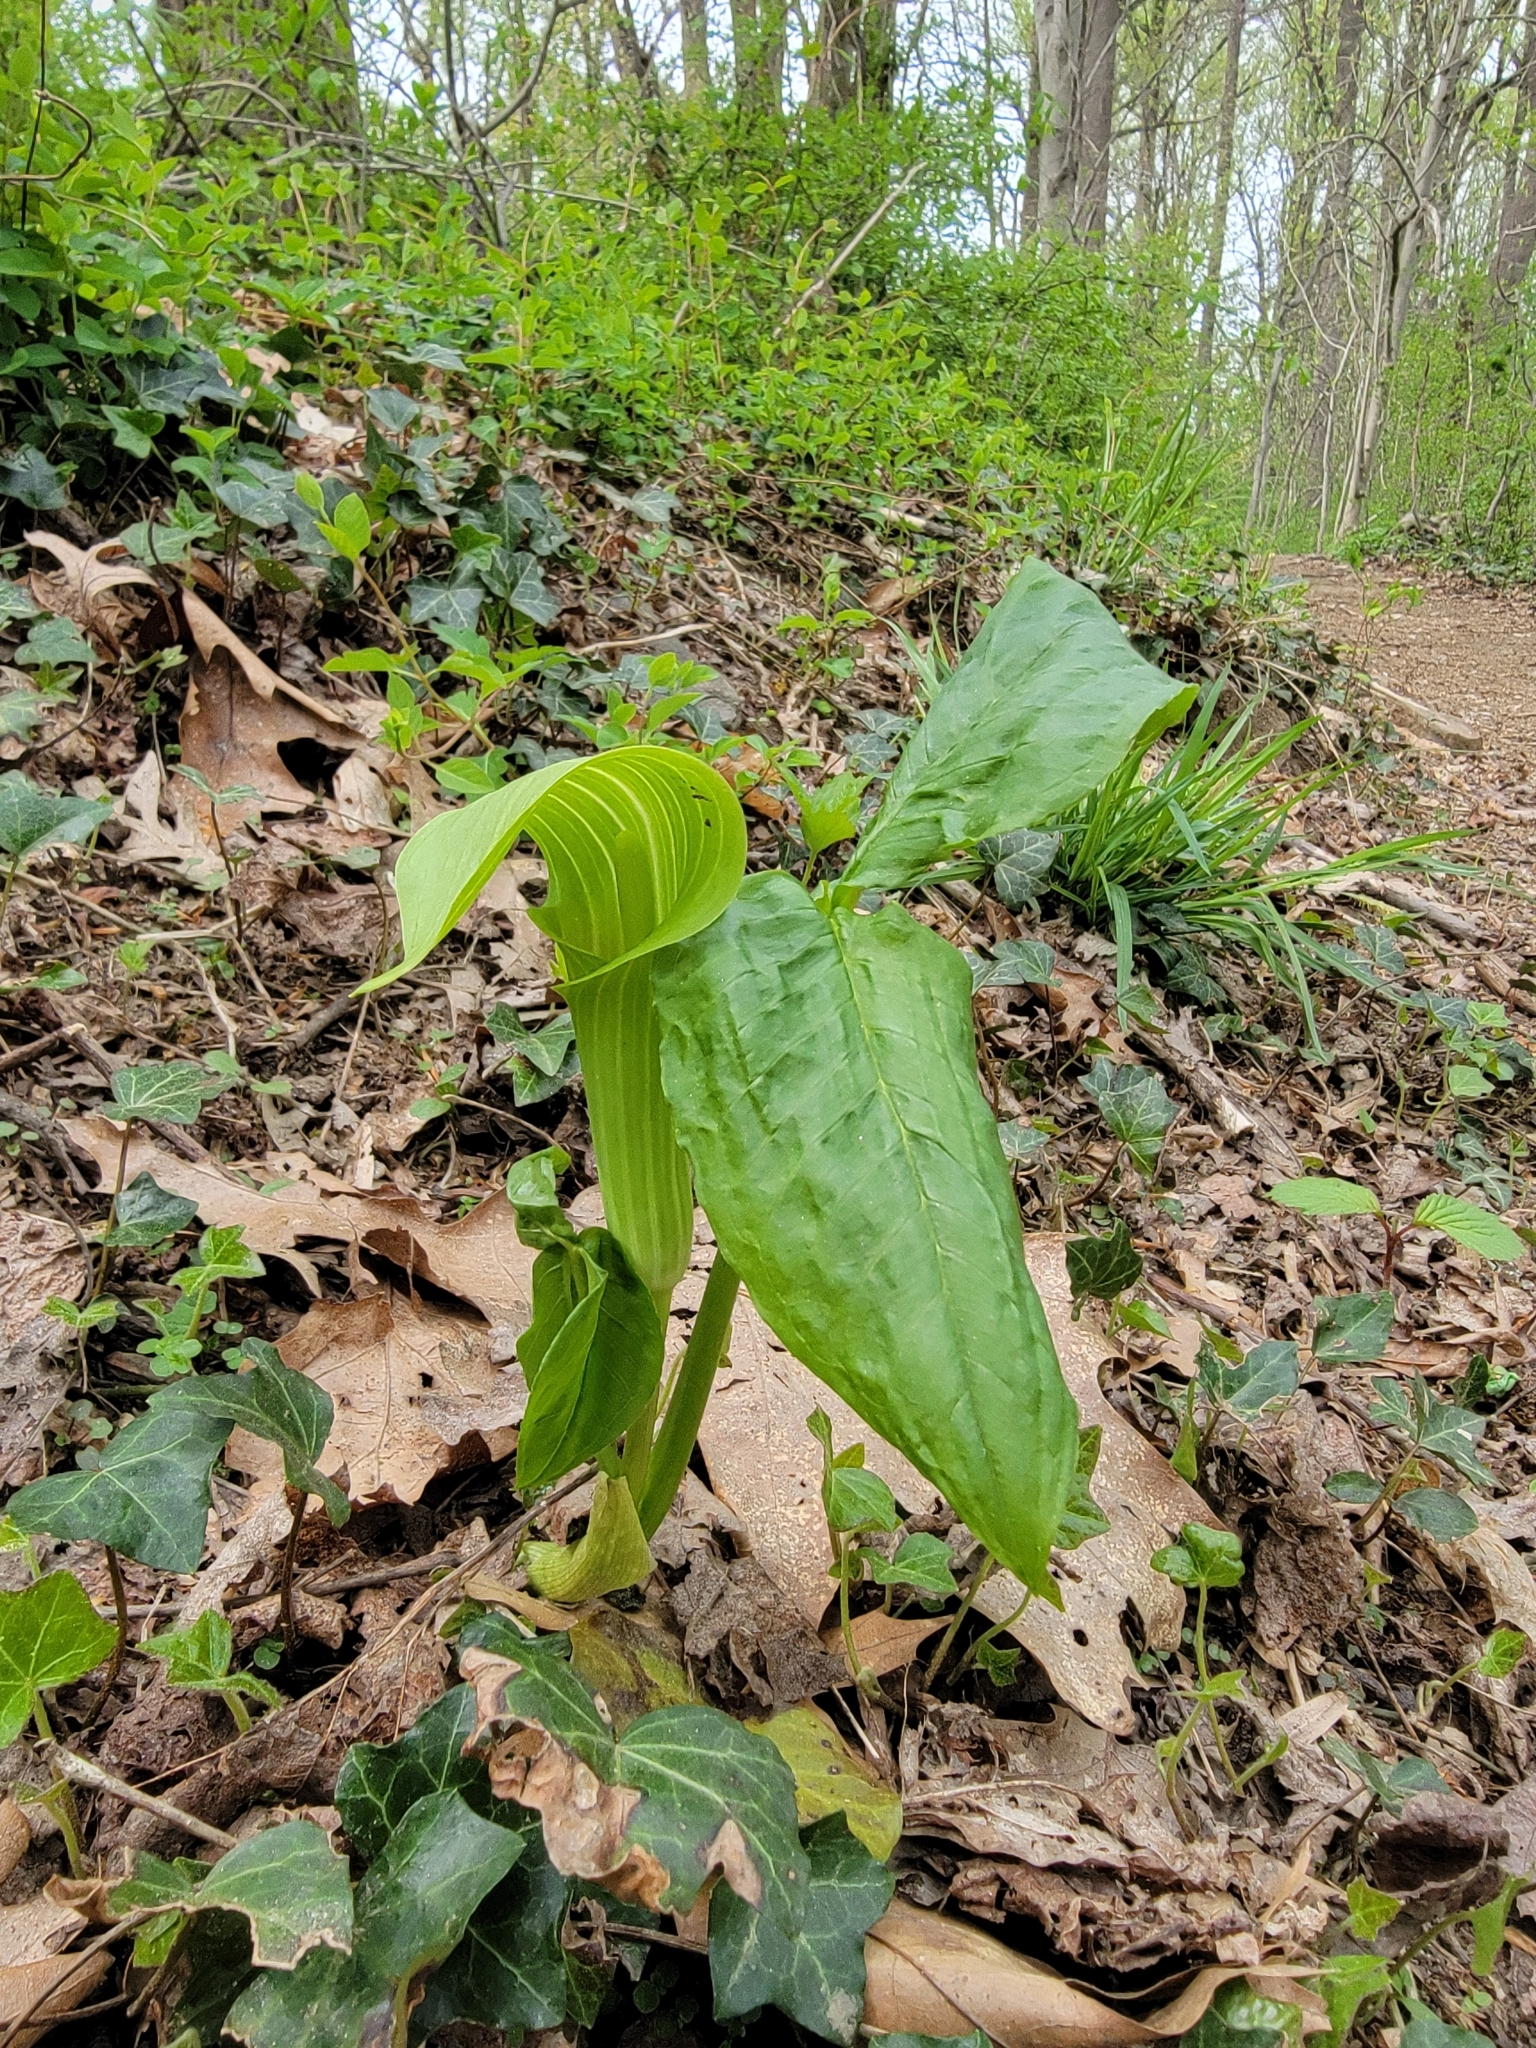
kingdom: Plantae
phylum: Tracheophyta
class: Liliopsida
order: Alismatales
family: Araceae
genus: Arisaema
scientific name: Arisaema triphyllum
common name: Jack-in-the-pulpit
